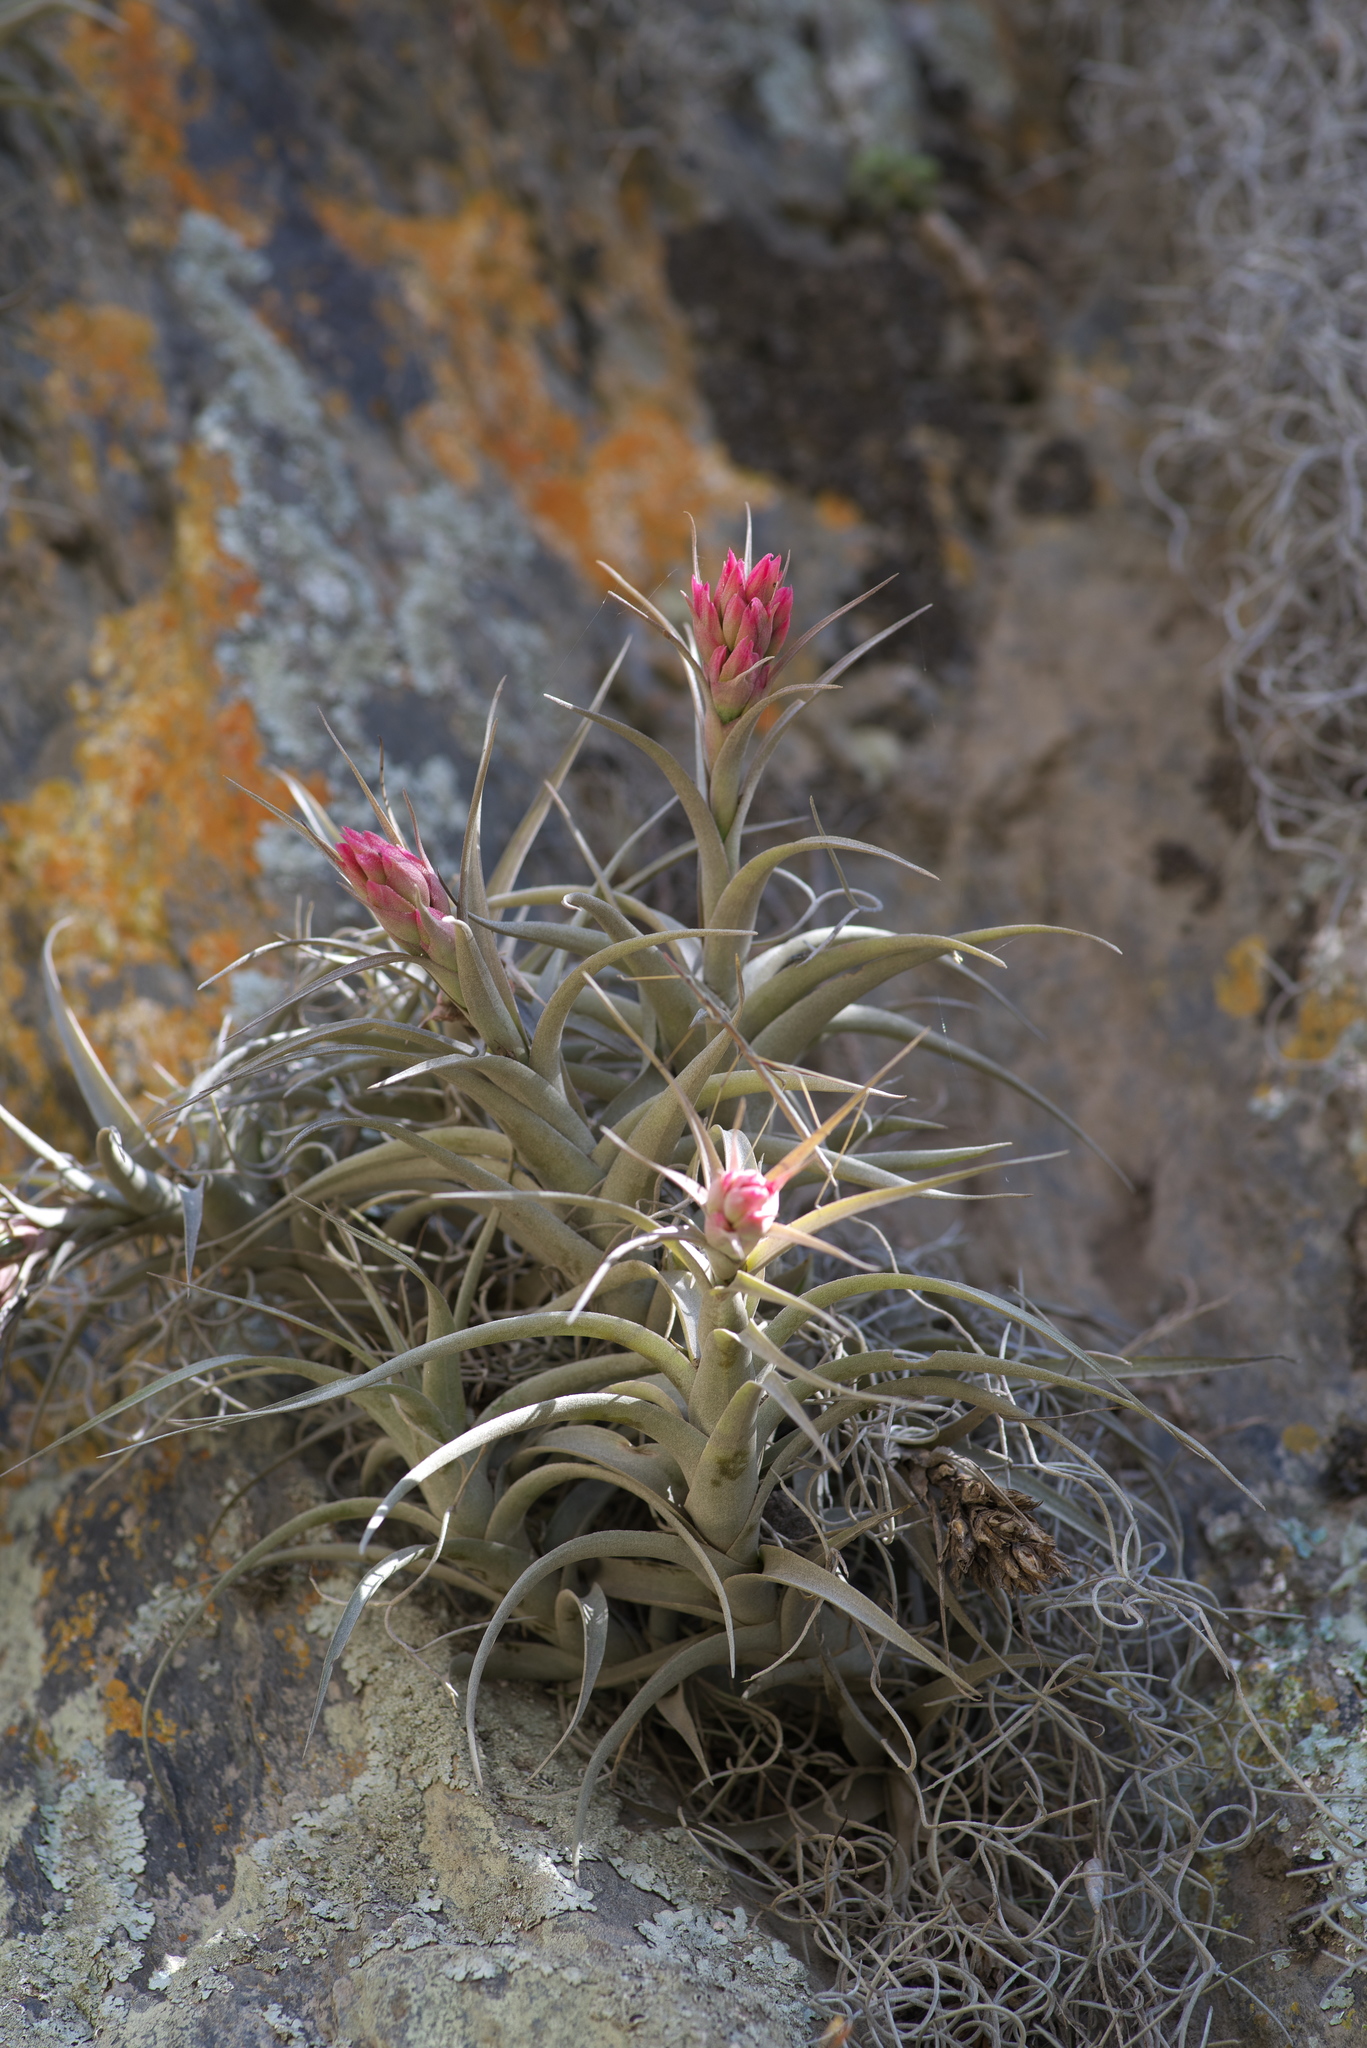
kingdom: Plantae
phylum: Tracheophyta
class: Liliopsida
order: Poales
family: Bromeliaceae
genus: Tillandsia
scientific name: Tillandsia nana
